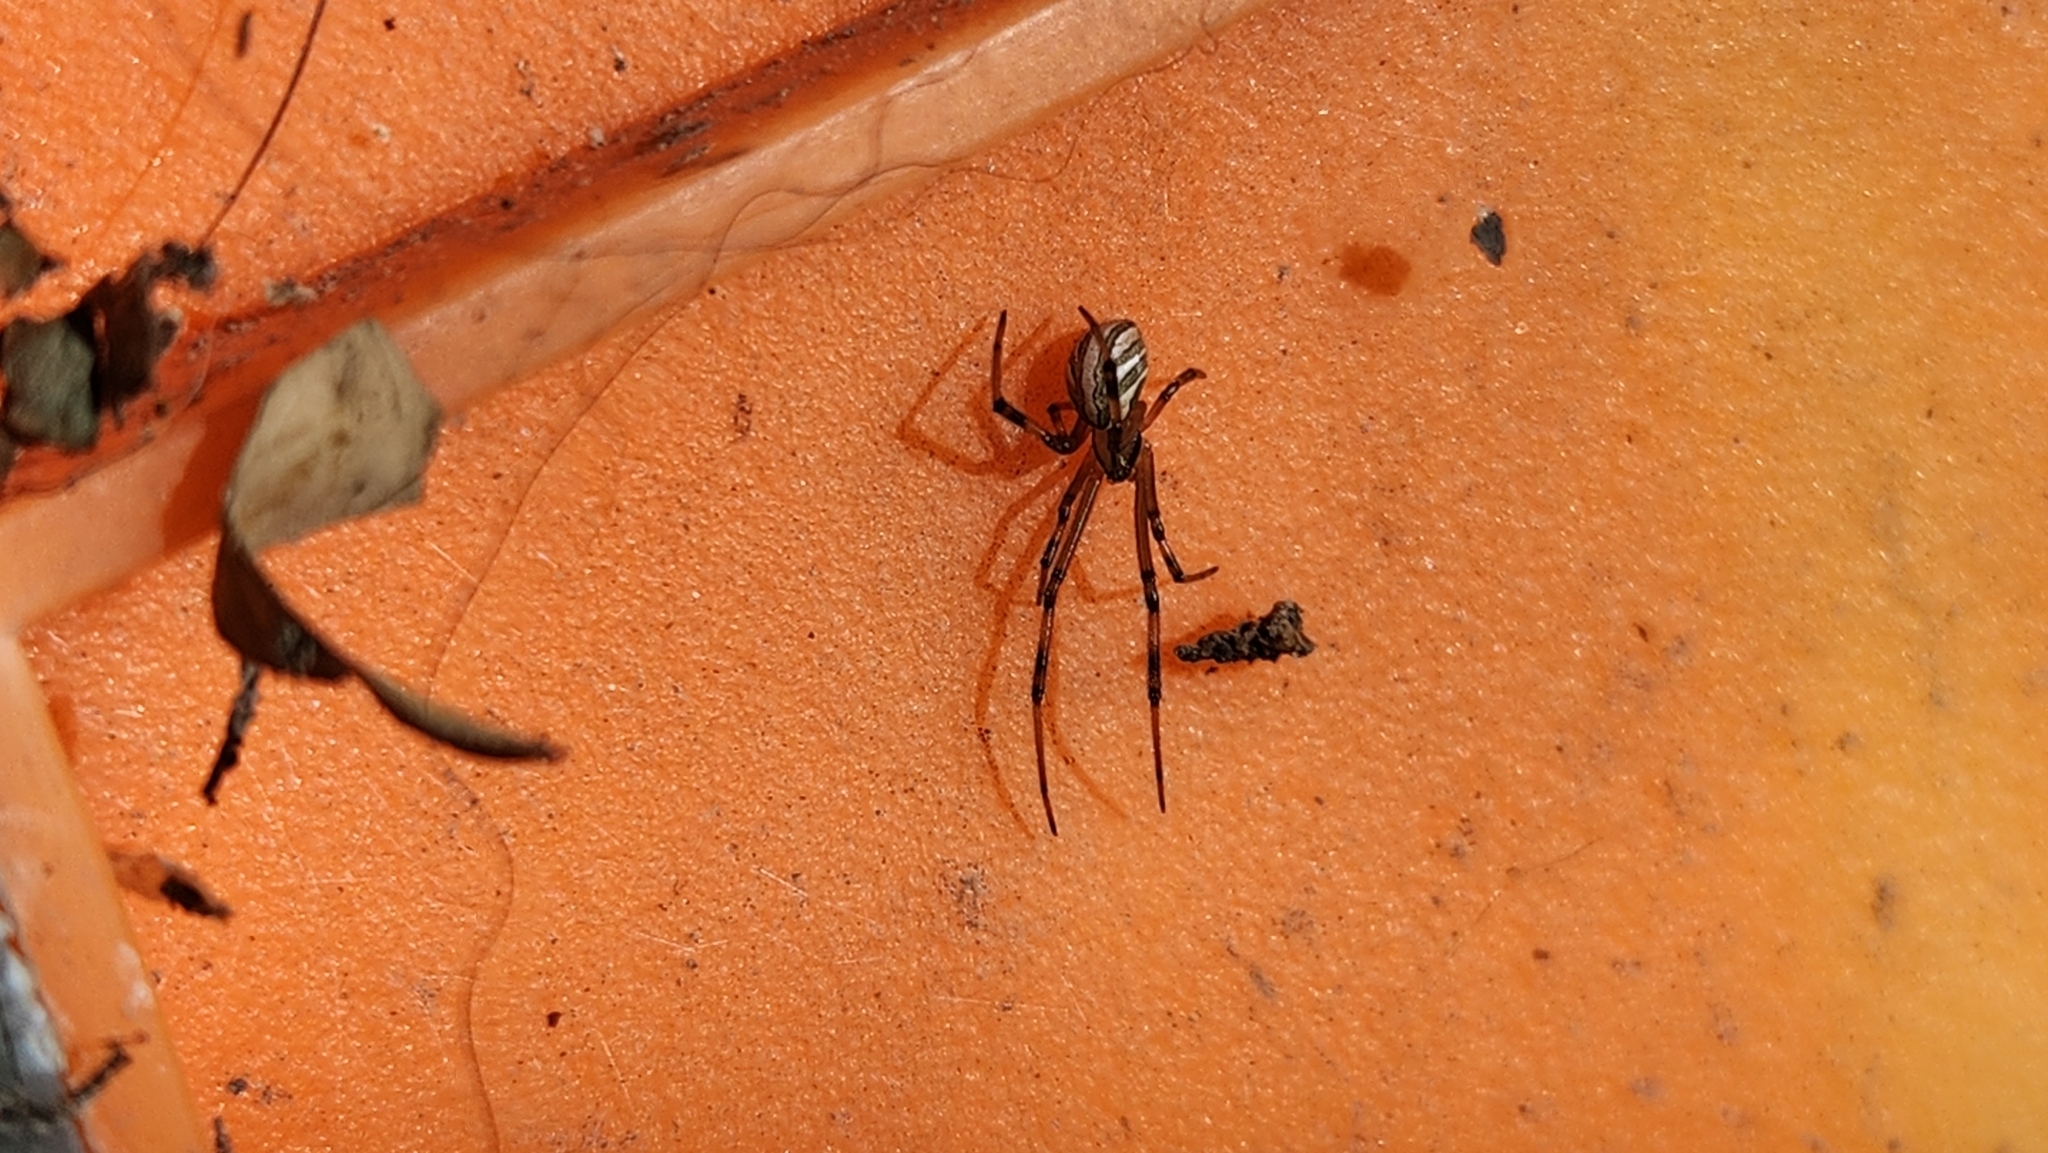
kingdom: Animalia
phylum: Arthropoda
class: Arachnida
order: Araneae
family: Theridiidae
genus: Latrodectus
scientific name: Latrodectus hesperus
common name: Western black widow
